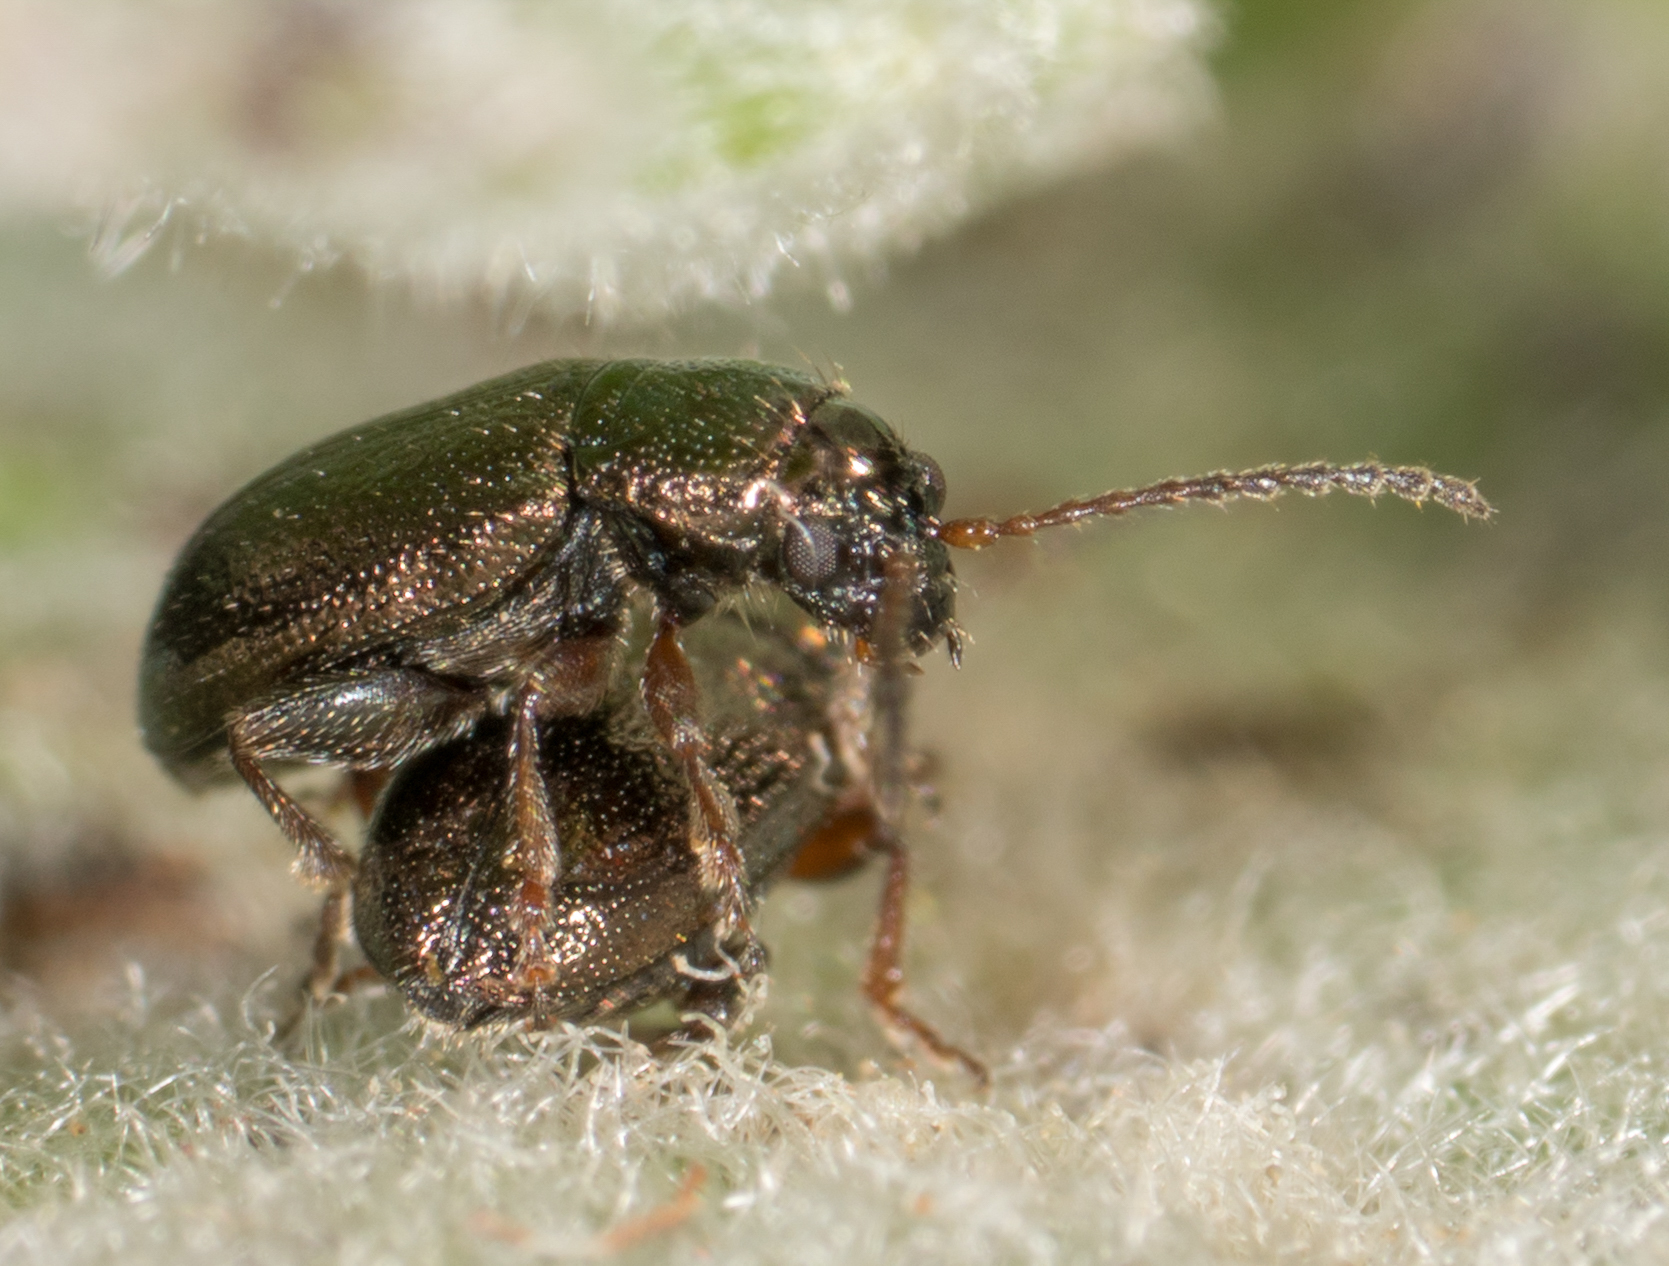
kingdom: Animalia
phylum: Arthropoda
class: Insecta
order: Coleoptera
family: Chrysomelidae
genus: Hemiglyptus
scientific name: Hemiglyptus basalis
